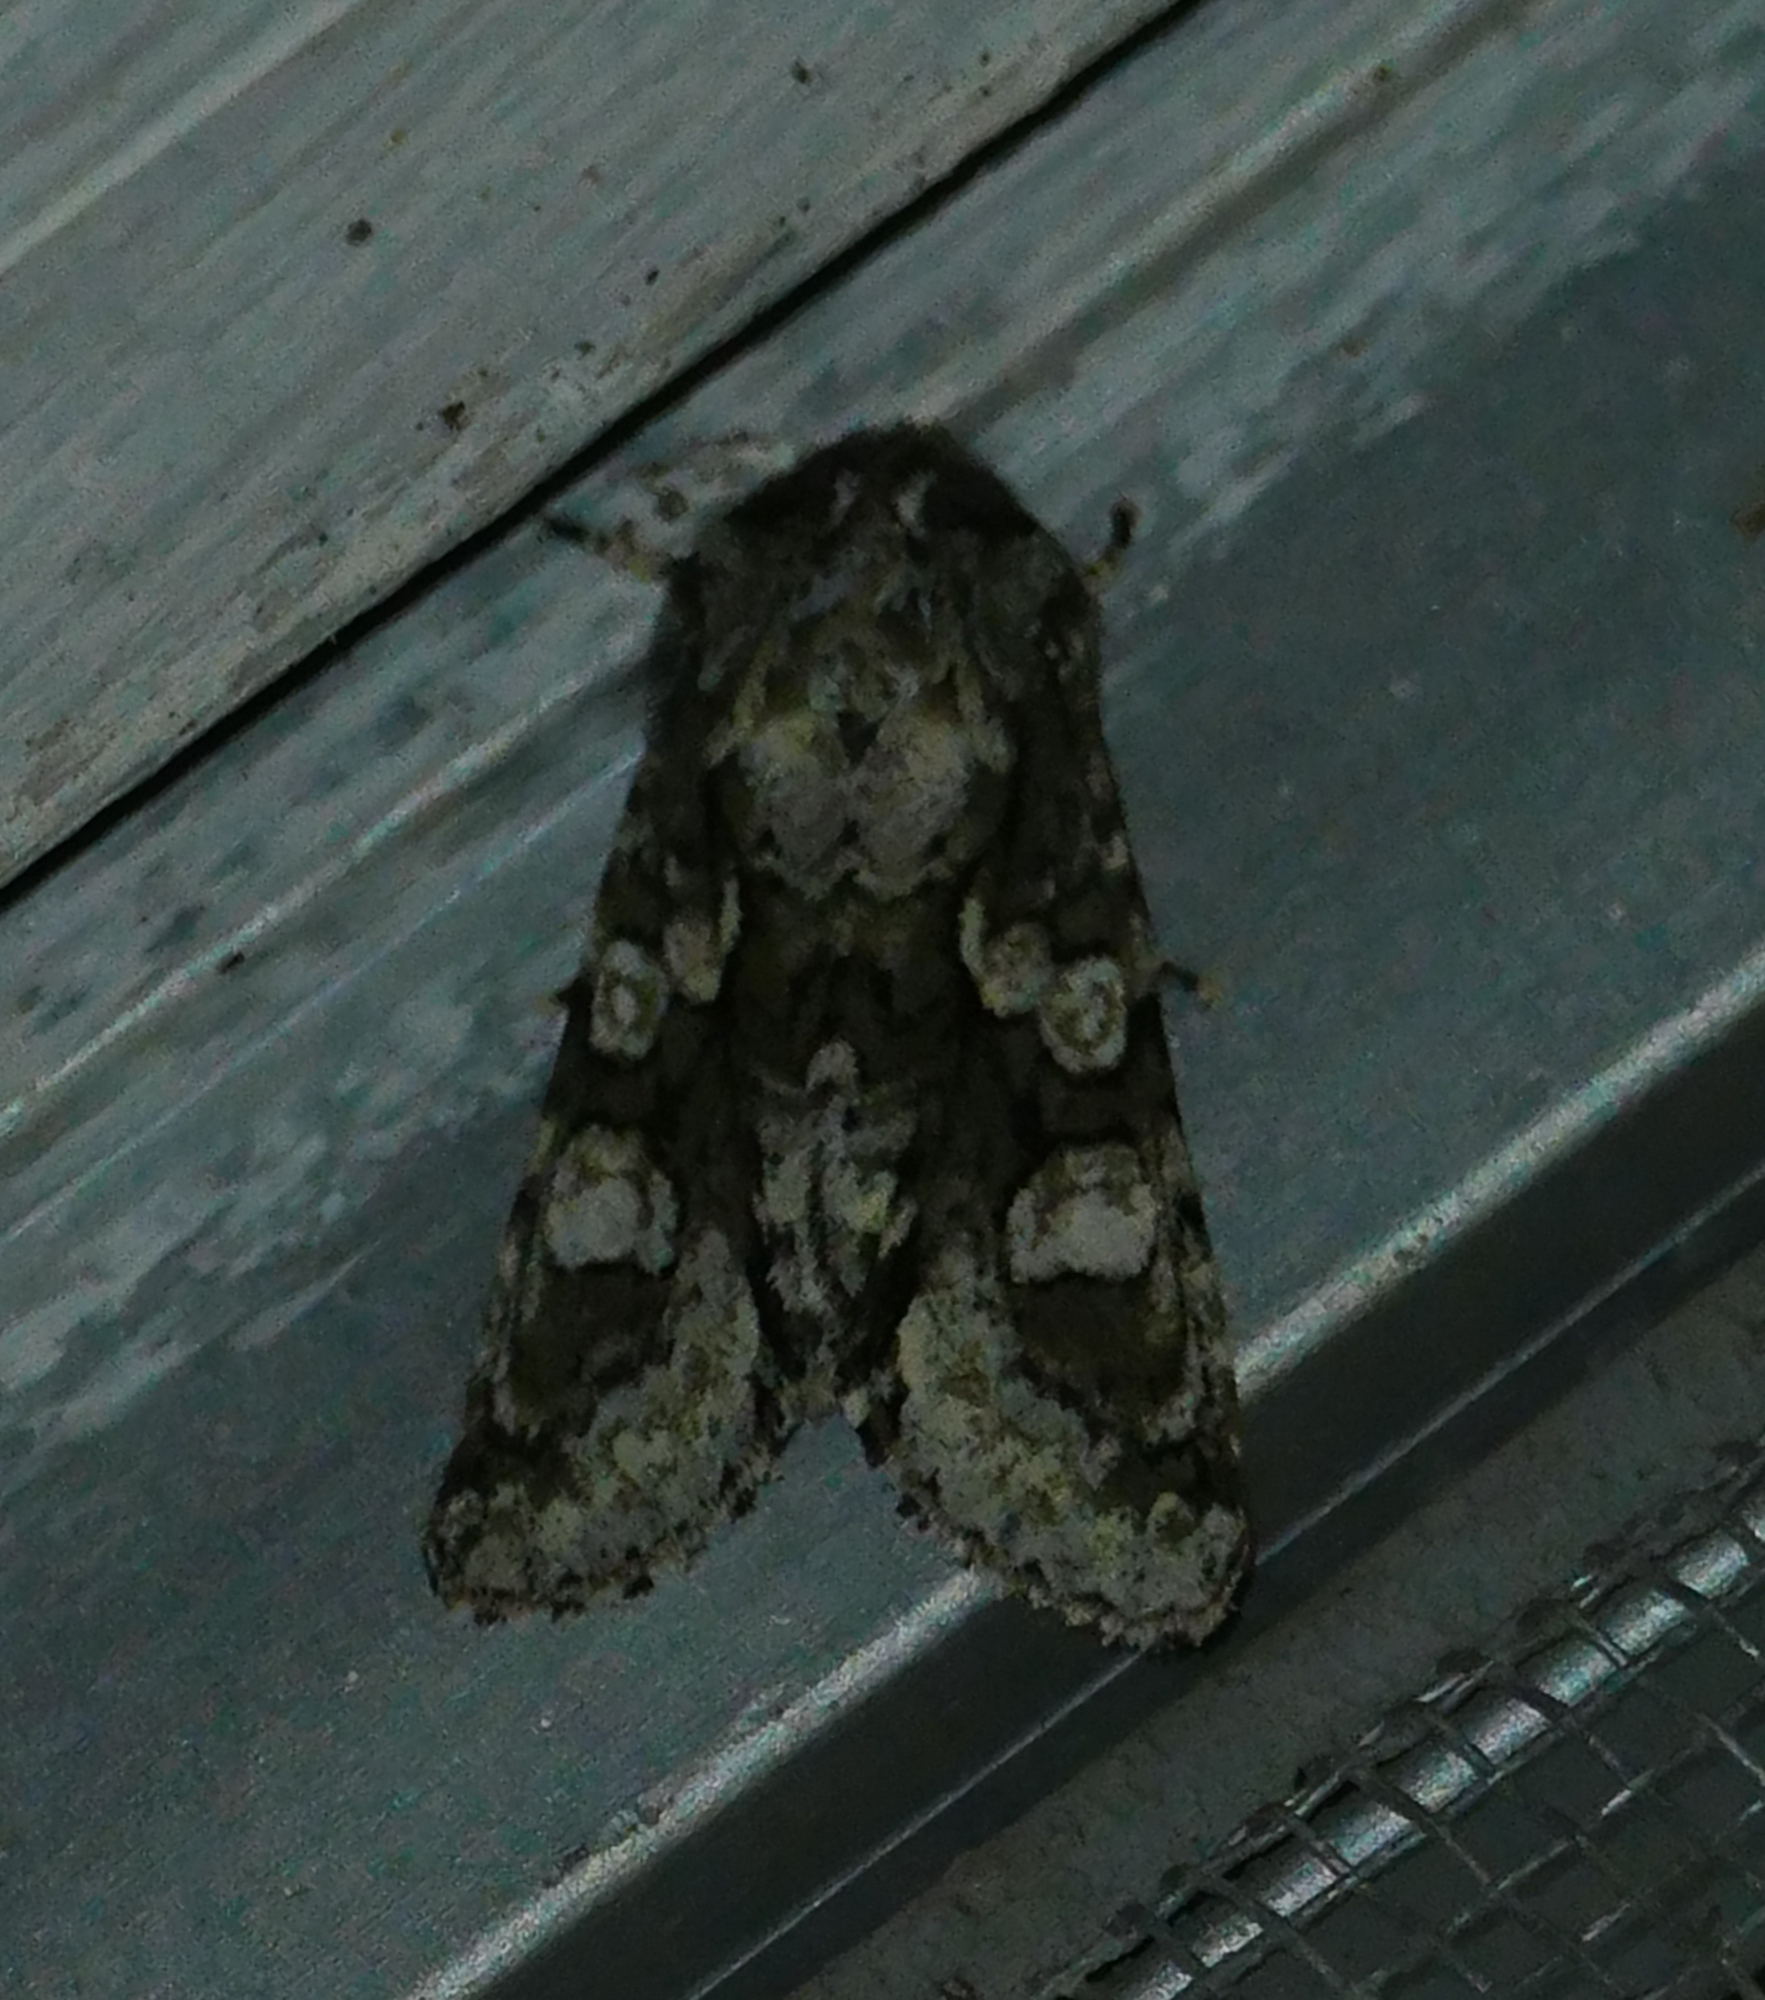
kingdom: Animalia
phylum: Arthropoda
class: Insecta
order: Lepidoptera
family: Noctuidae
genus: Psaphida
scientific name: Psaphida resumens
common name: Figure-eight sallow
